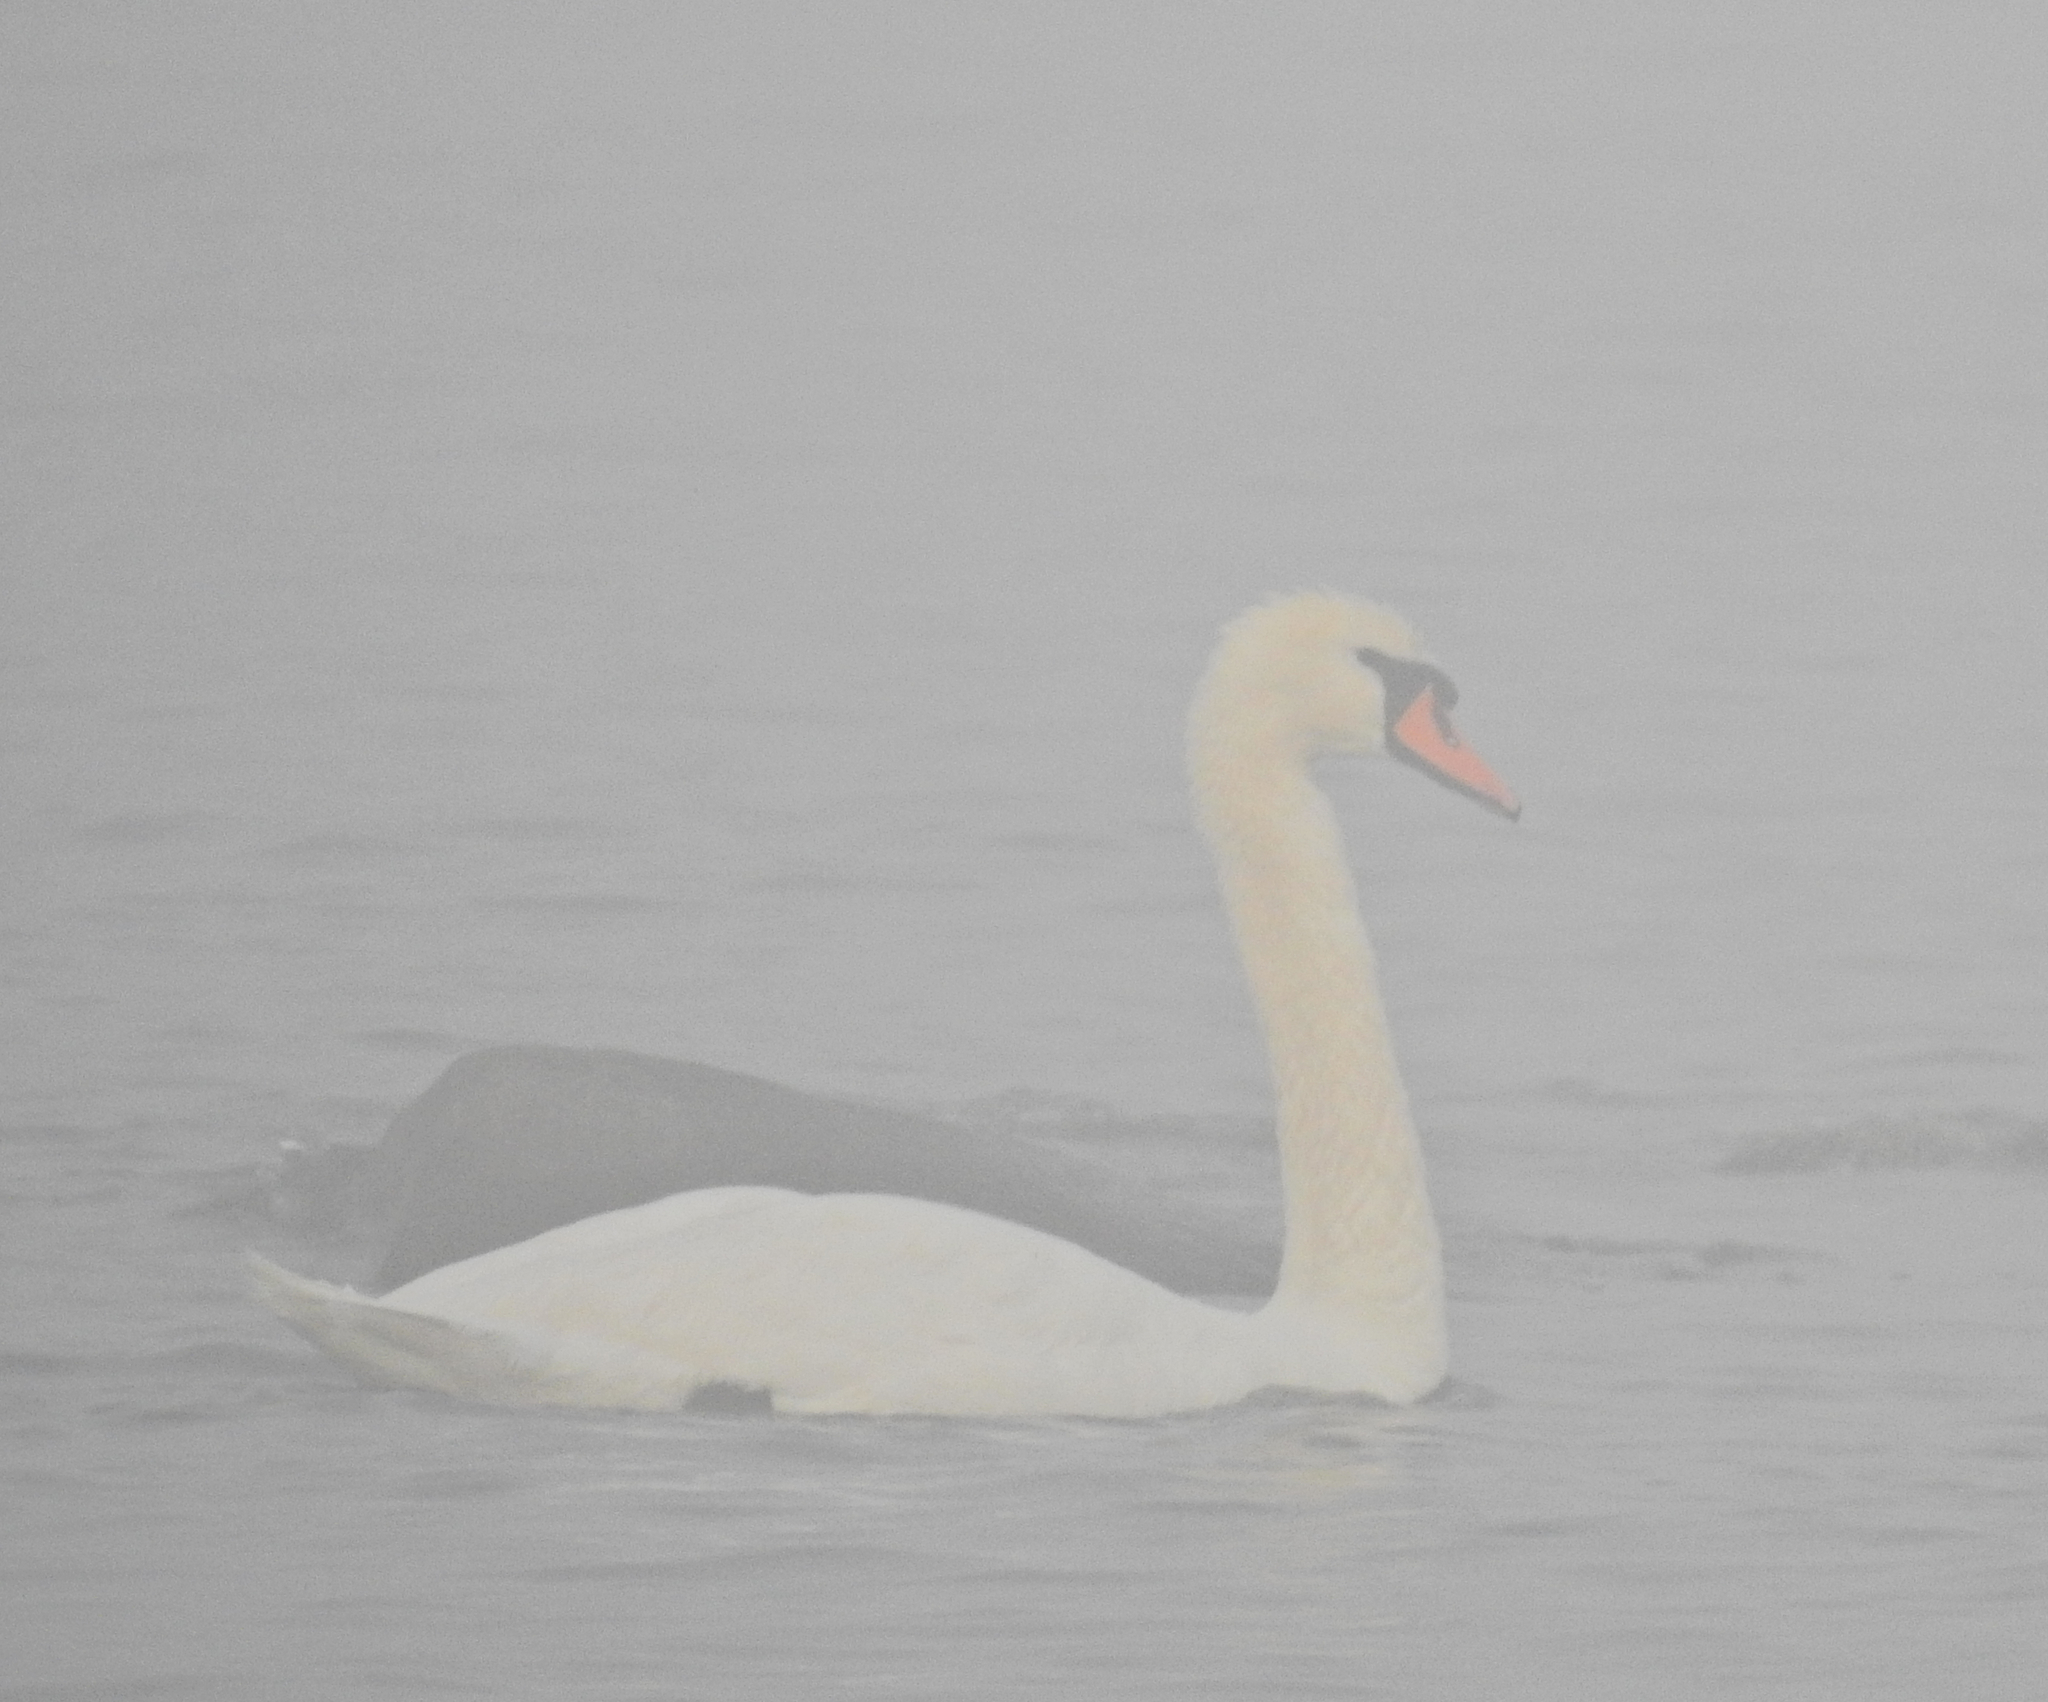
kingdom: Animalia
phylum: Chordata
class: Aves
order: Anseriformes
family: Anatidae
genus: Cygnus
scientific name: Cygnus olor
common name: Mute swan
